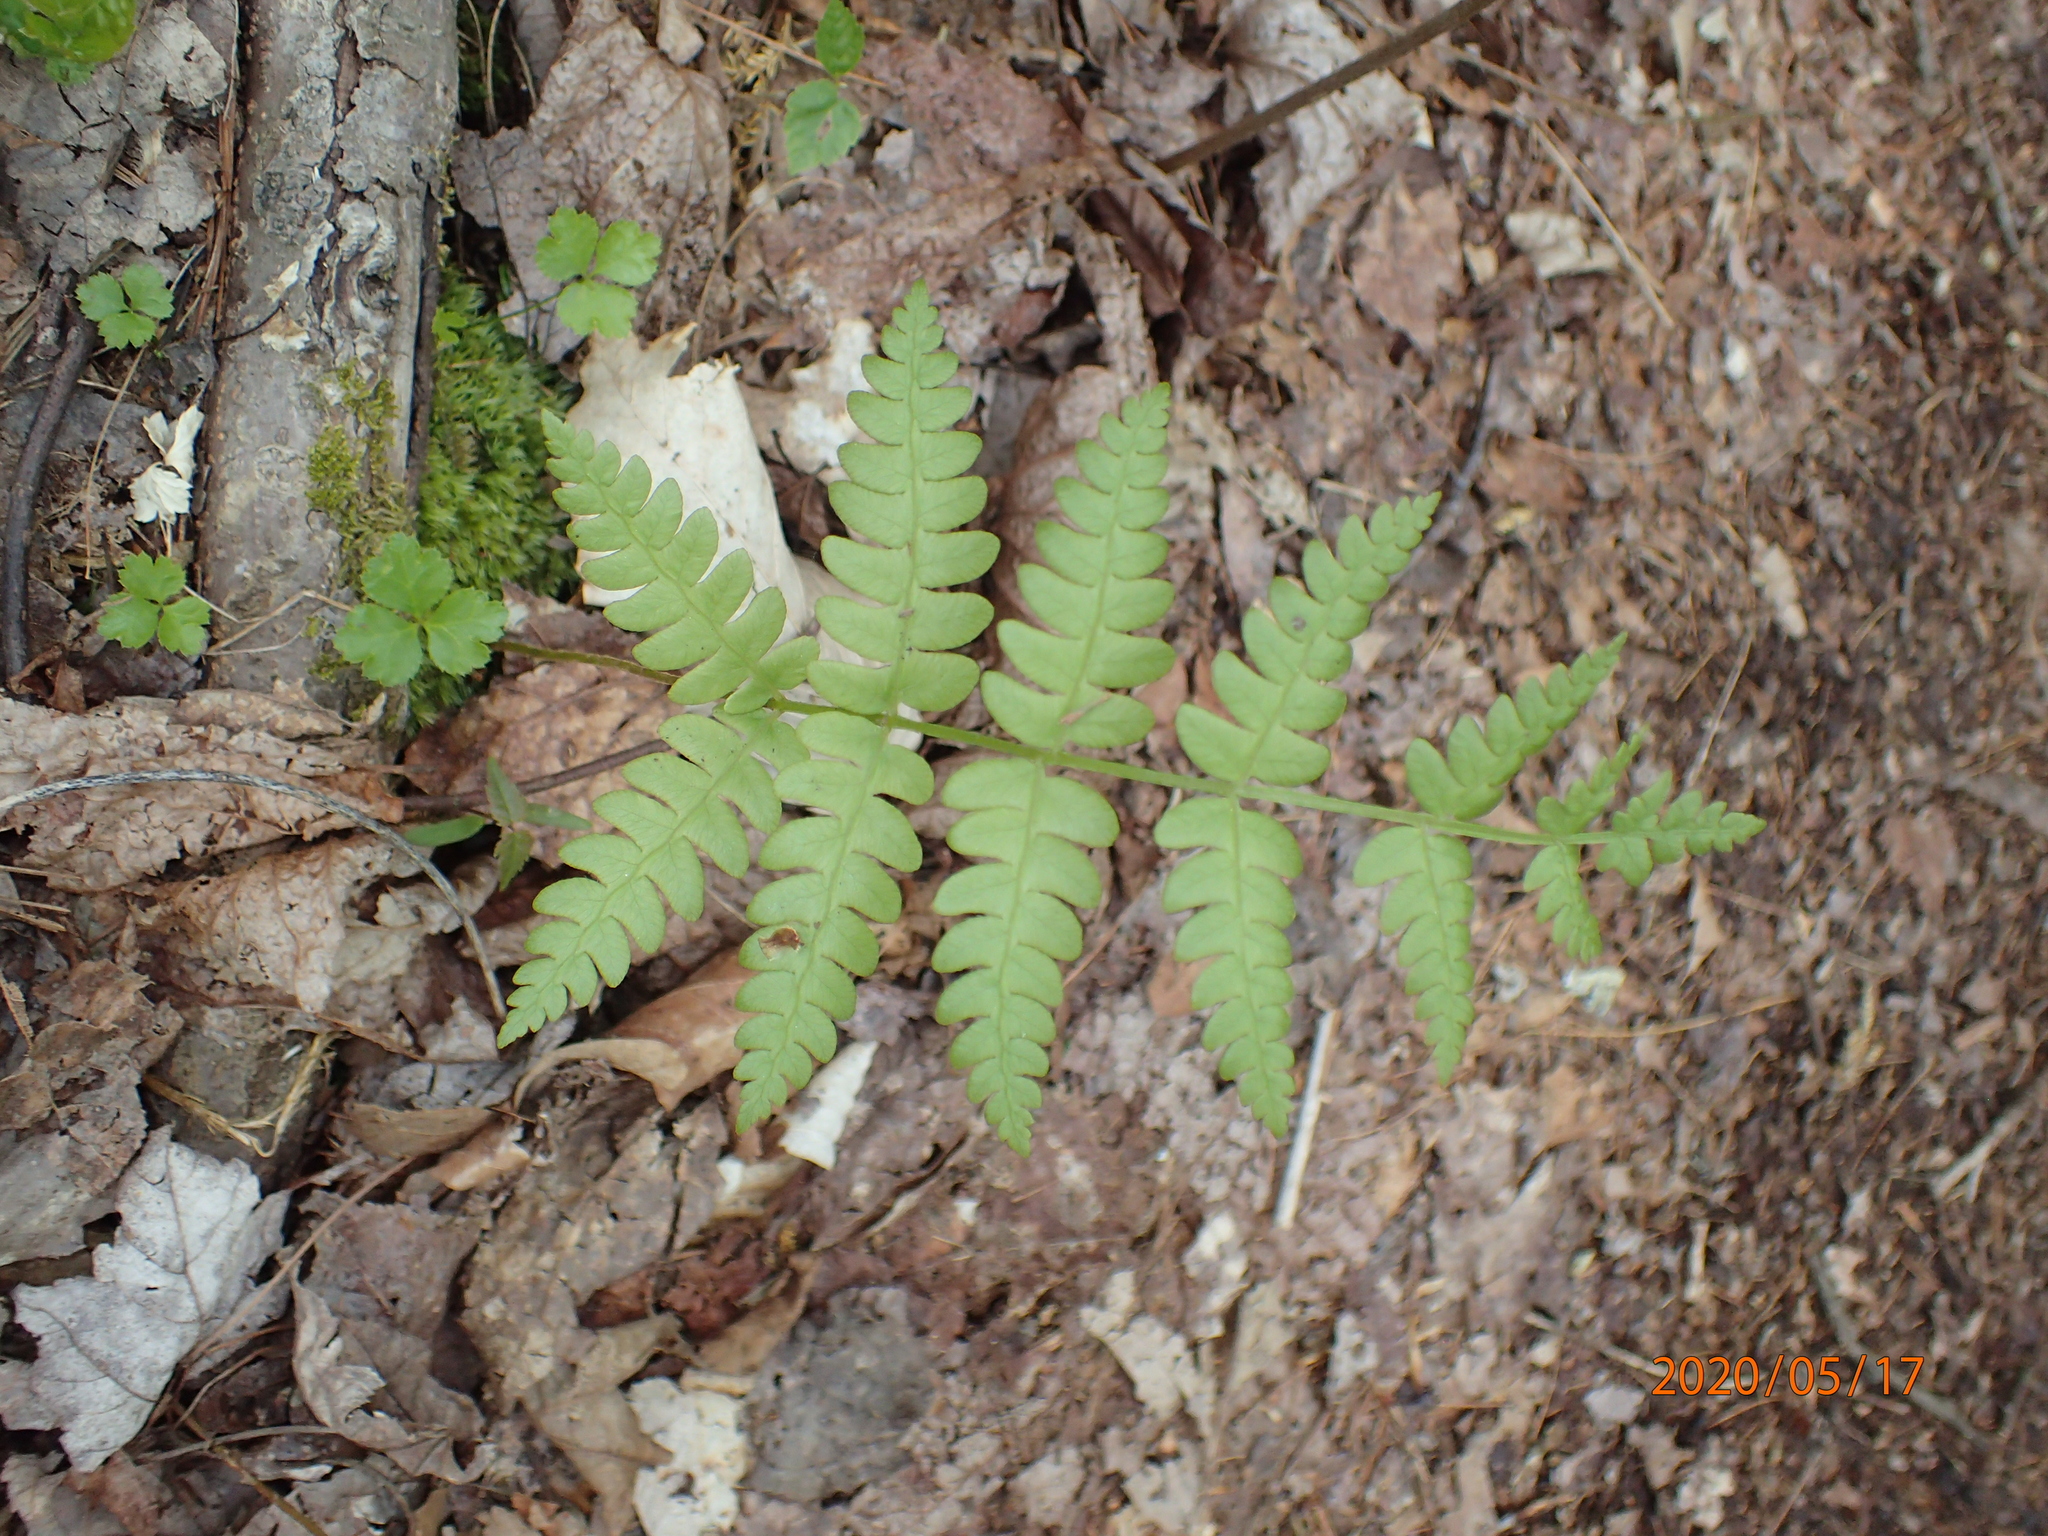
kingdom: Plantae
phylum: Tracheophyta
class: Polypodiopsida
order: Osmundales
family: Osmundaceae
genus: Osmundastrum
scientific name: Osmundastrum cinnamomeum
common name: Cinnamon fern
